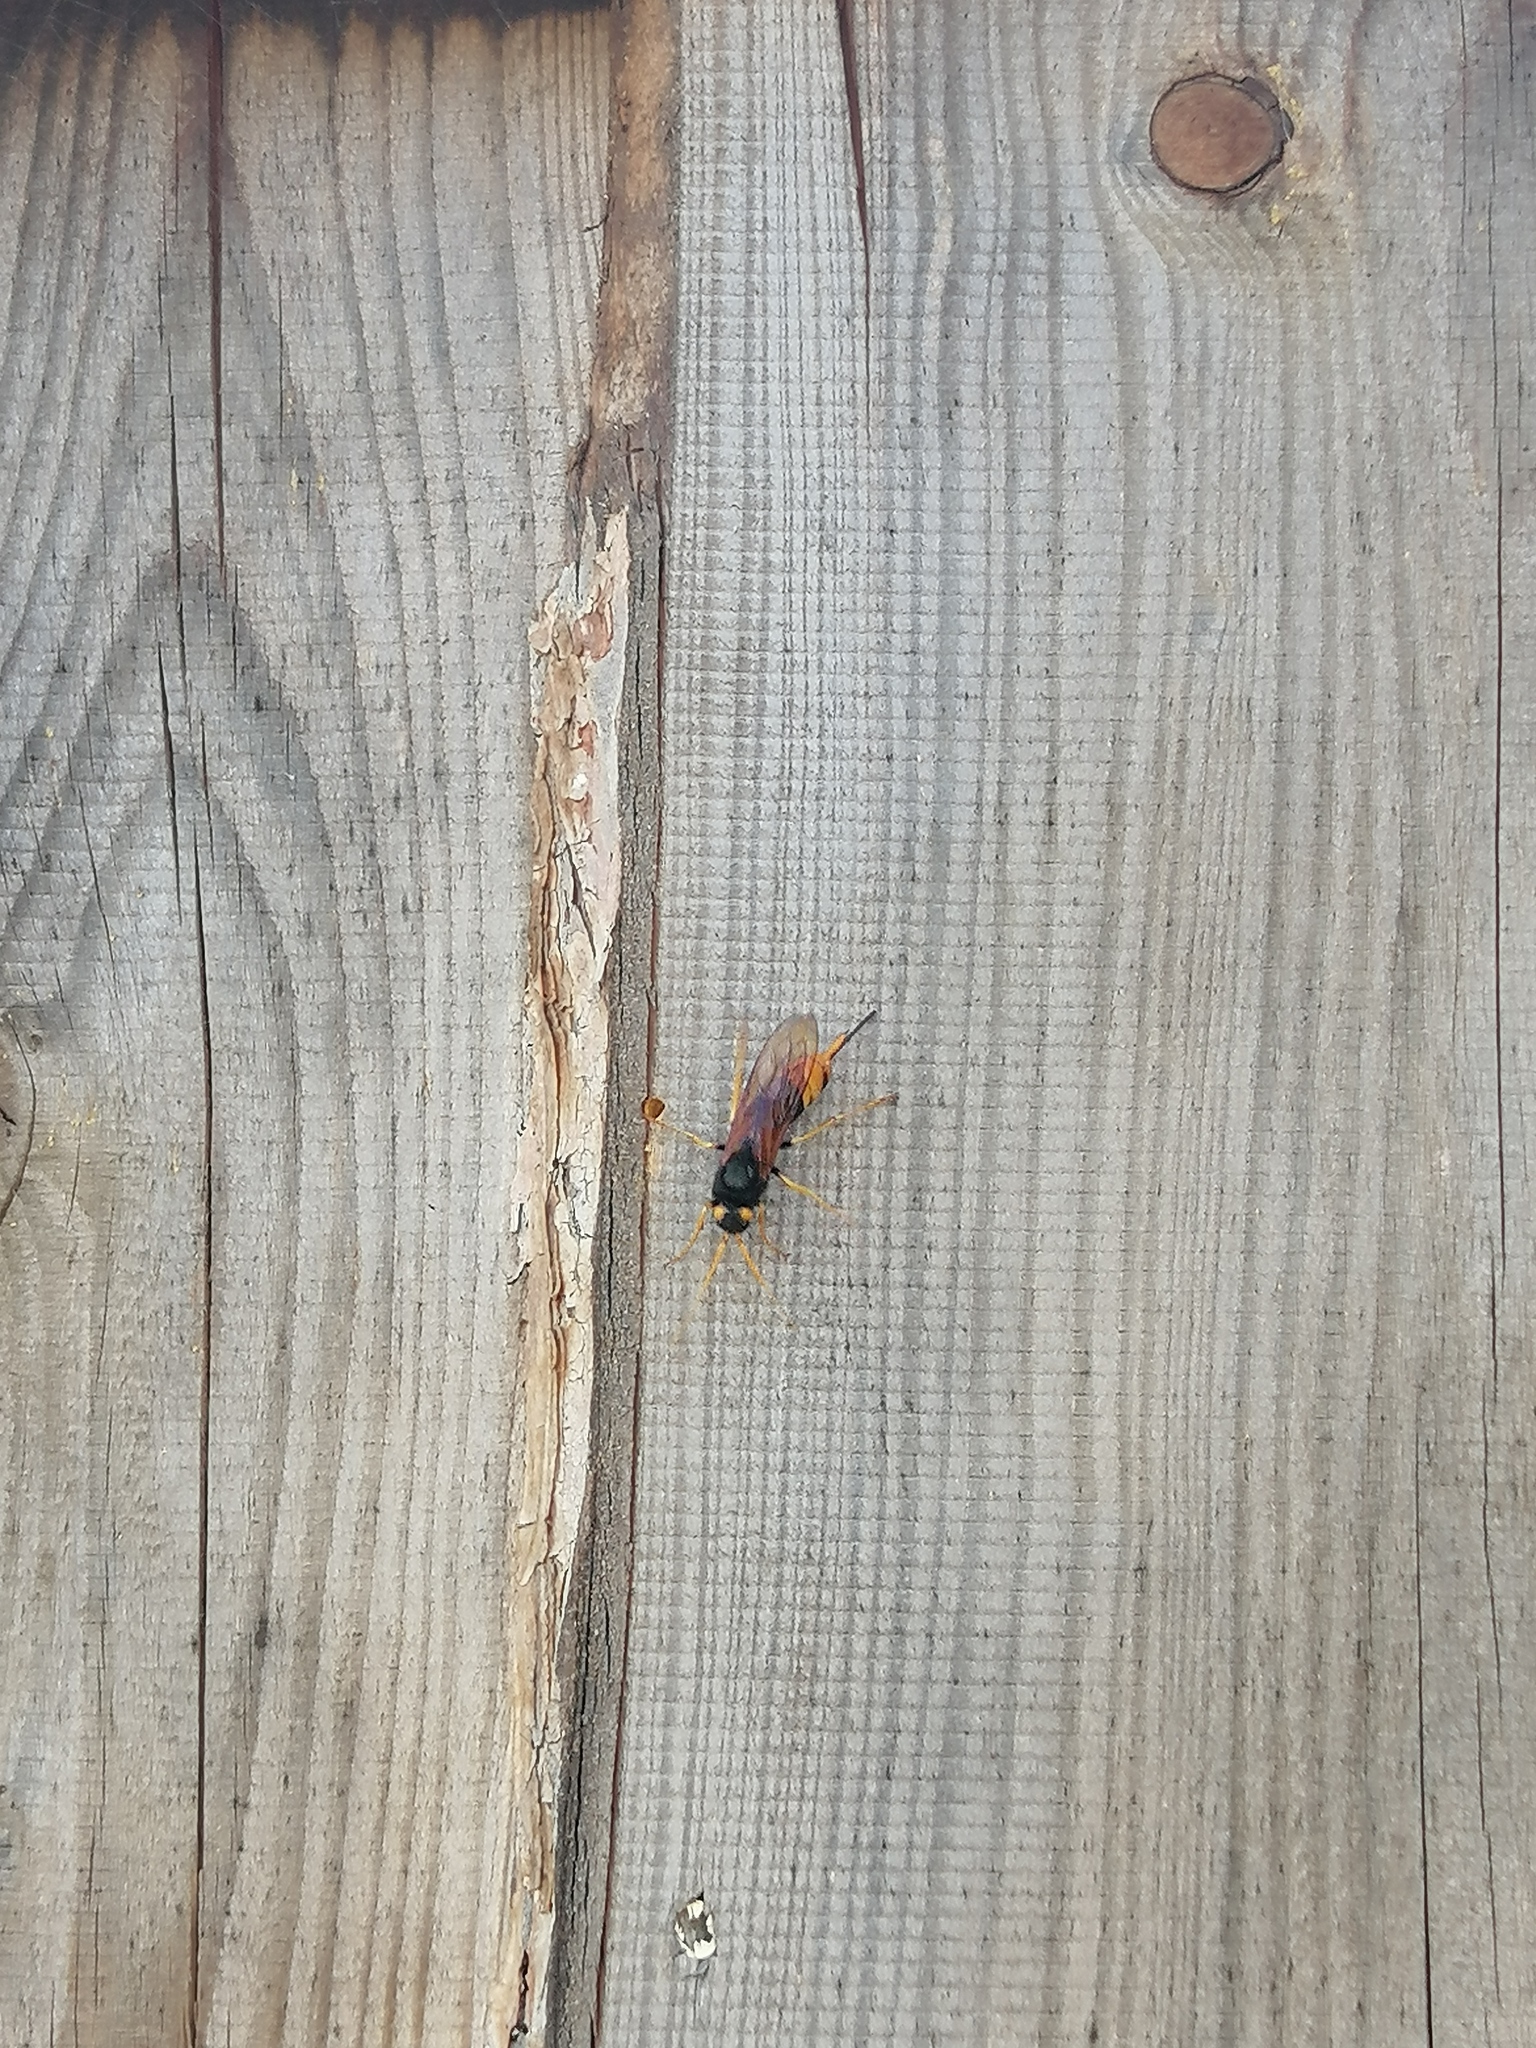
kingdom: Animalia
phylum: Arthropoda
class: Insecta
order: Hymenoptera
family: Siricidae
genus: Urocerus
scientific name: Urocerus gigas
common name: Giant woodwasp
